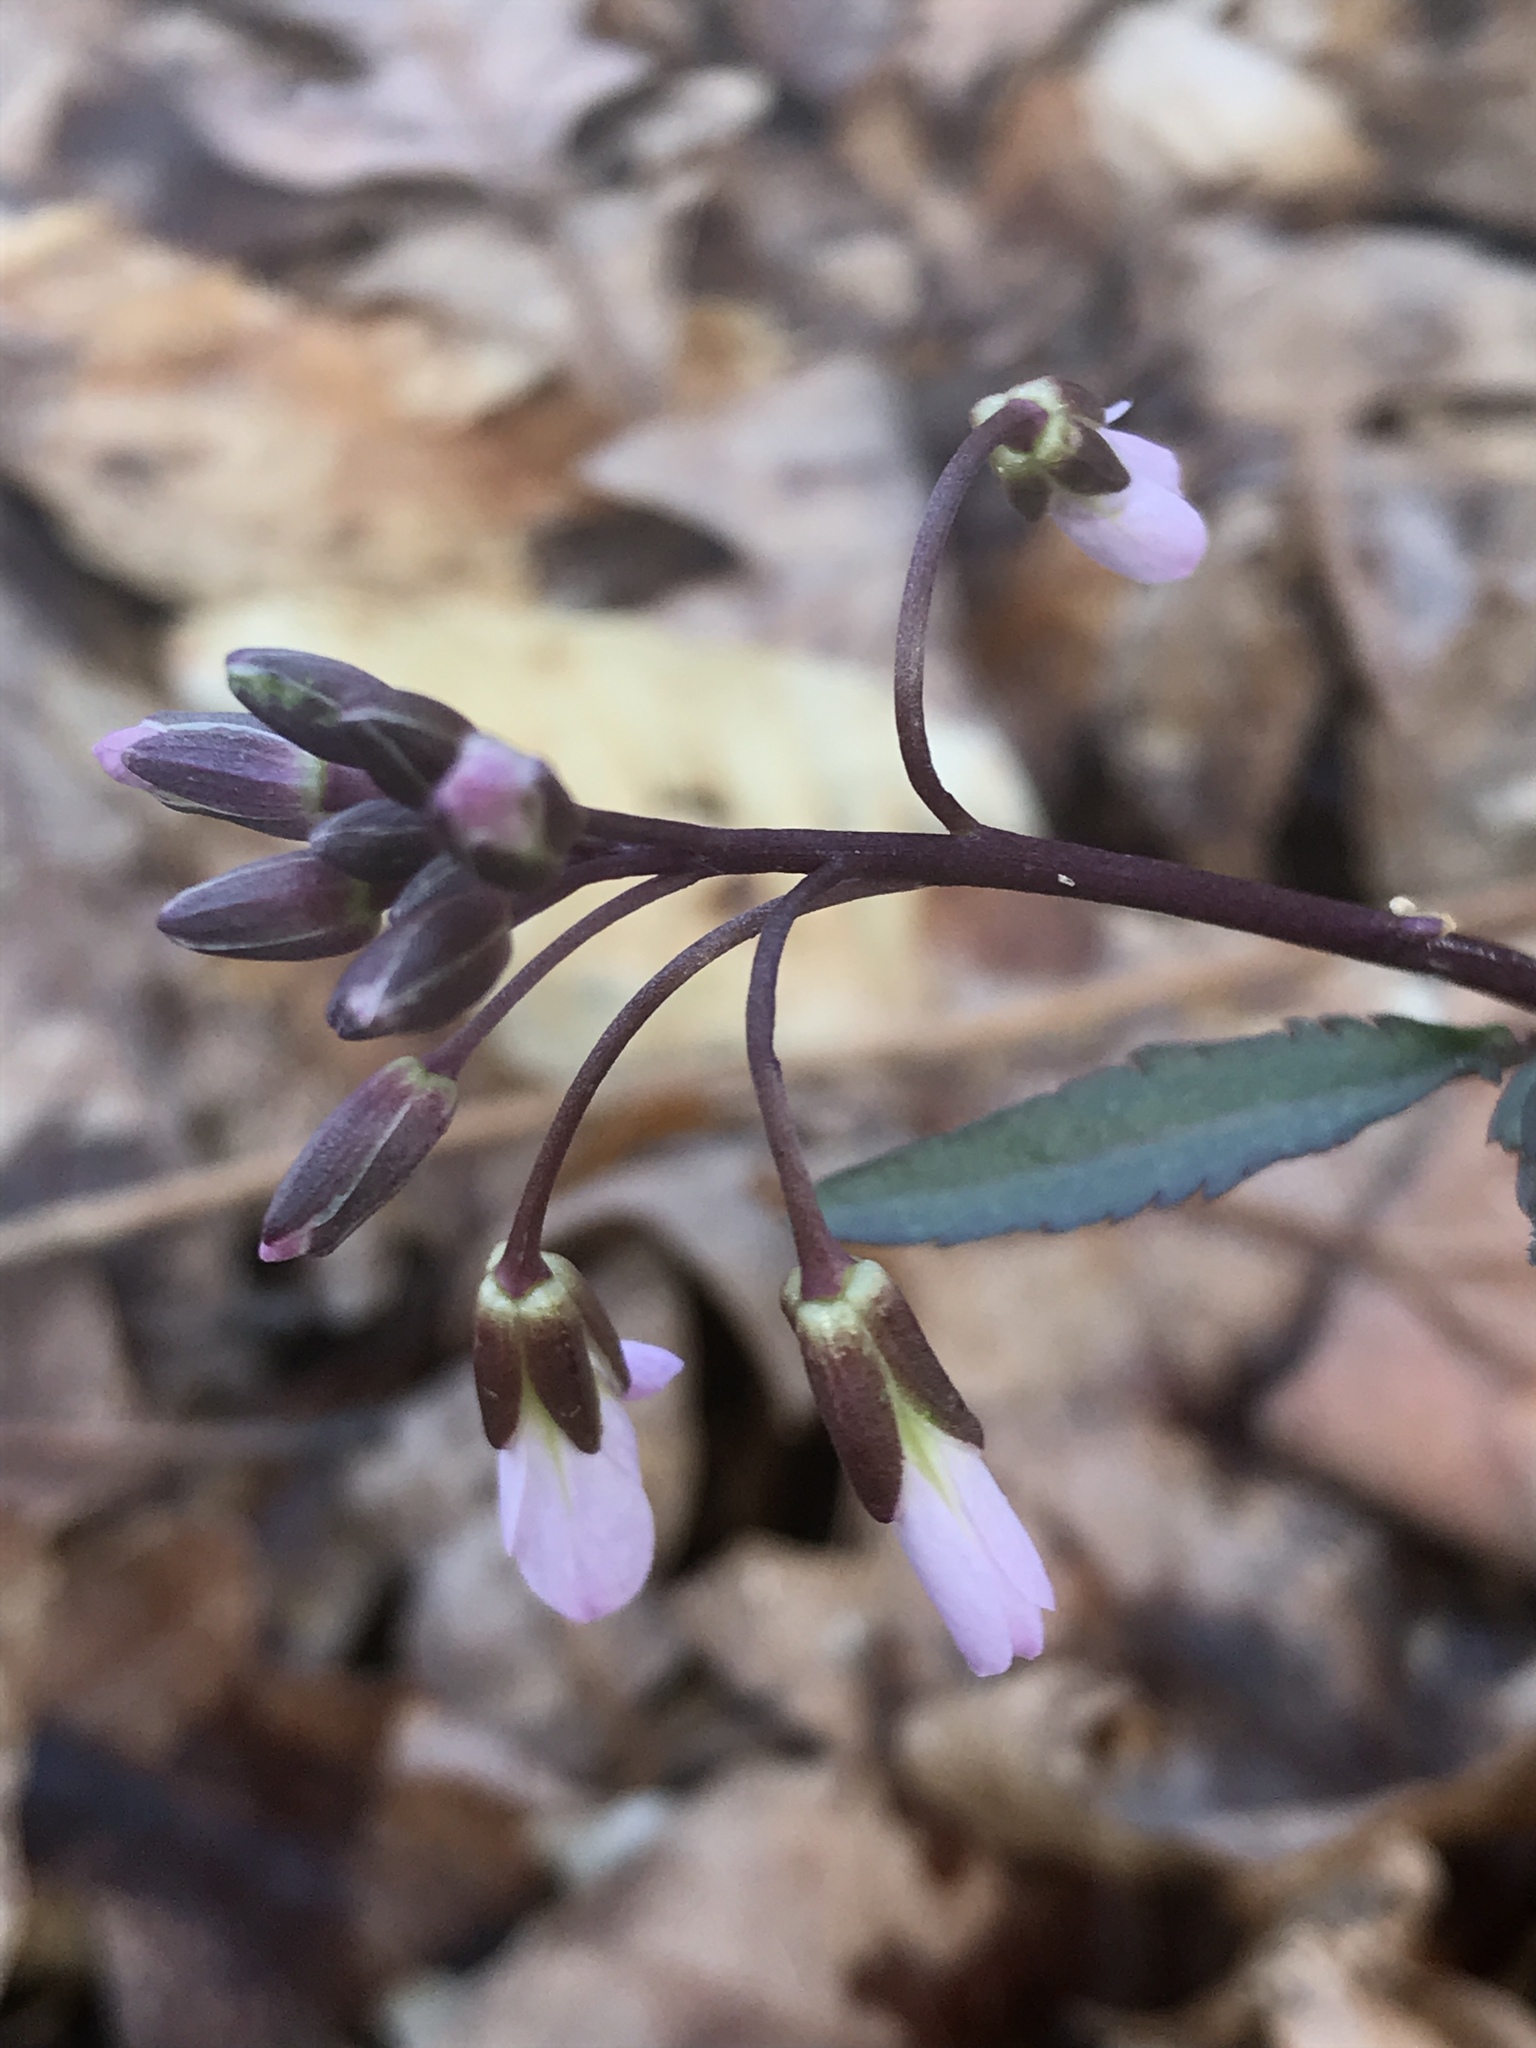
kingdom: Plantae
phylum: Tracheophyta
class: Magnoliopsida
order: Brassicales
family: Brassicaceae
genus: Cardamine
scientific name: Cardamine angustata
